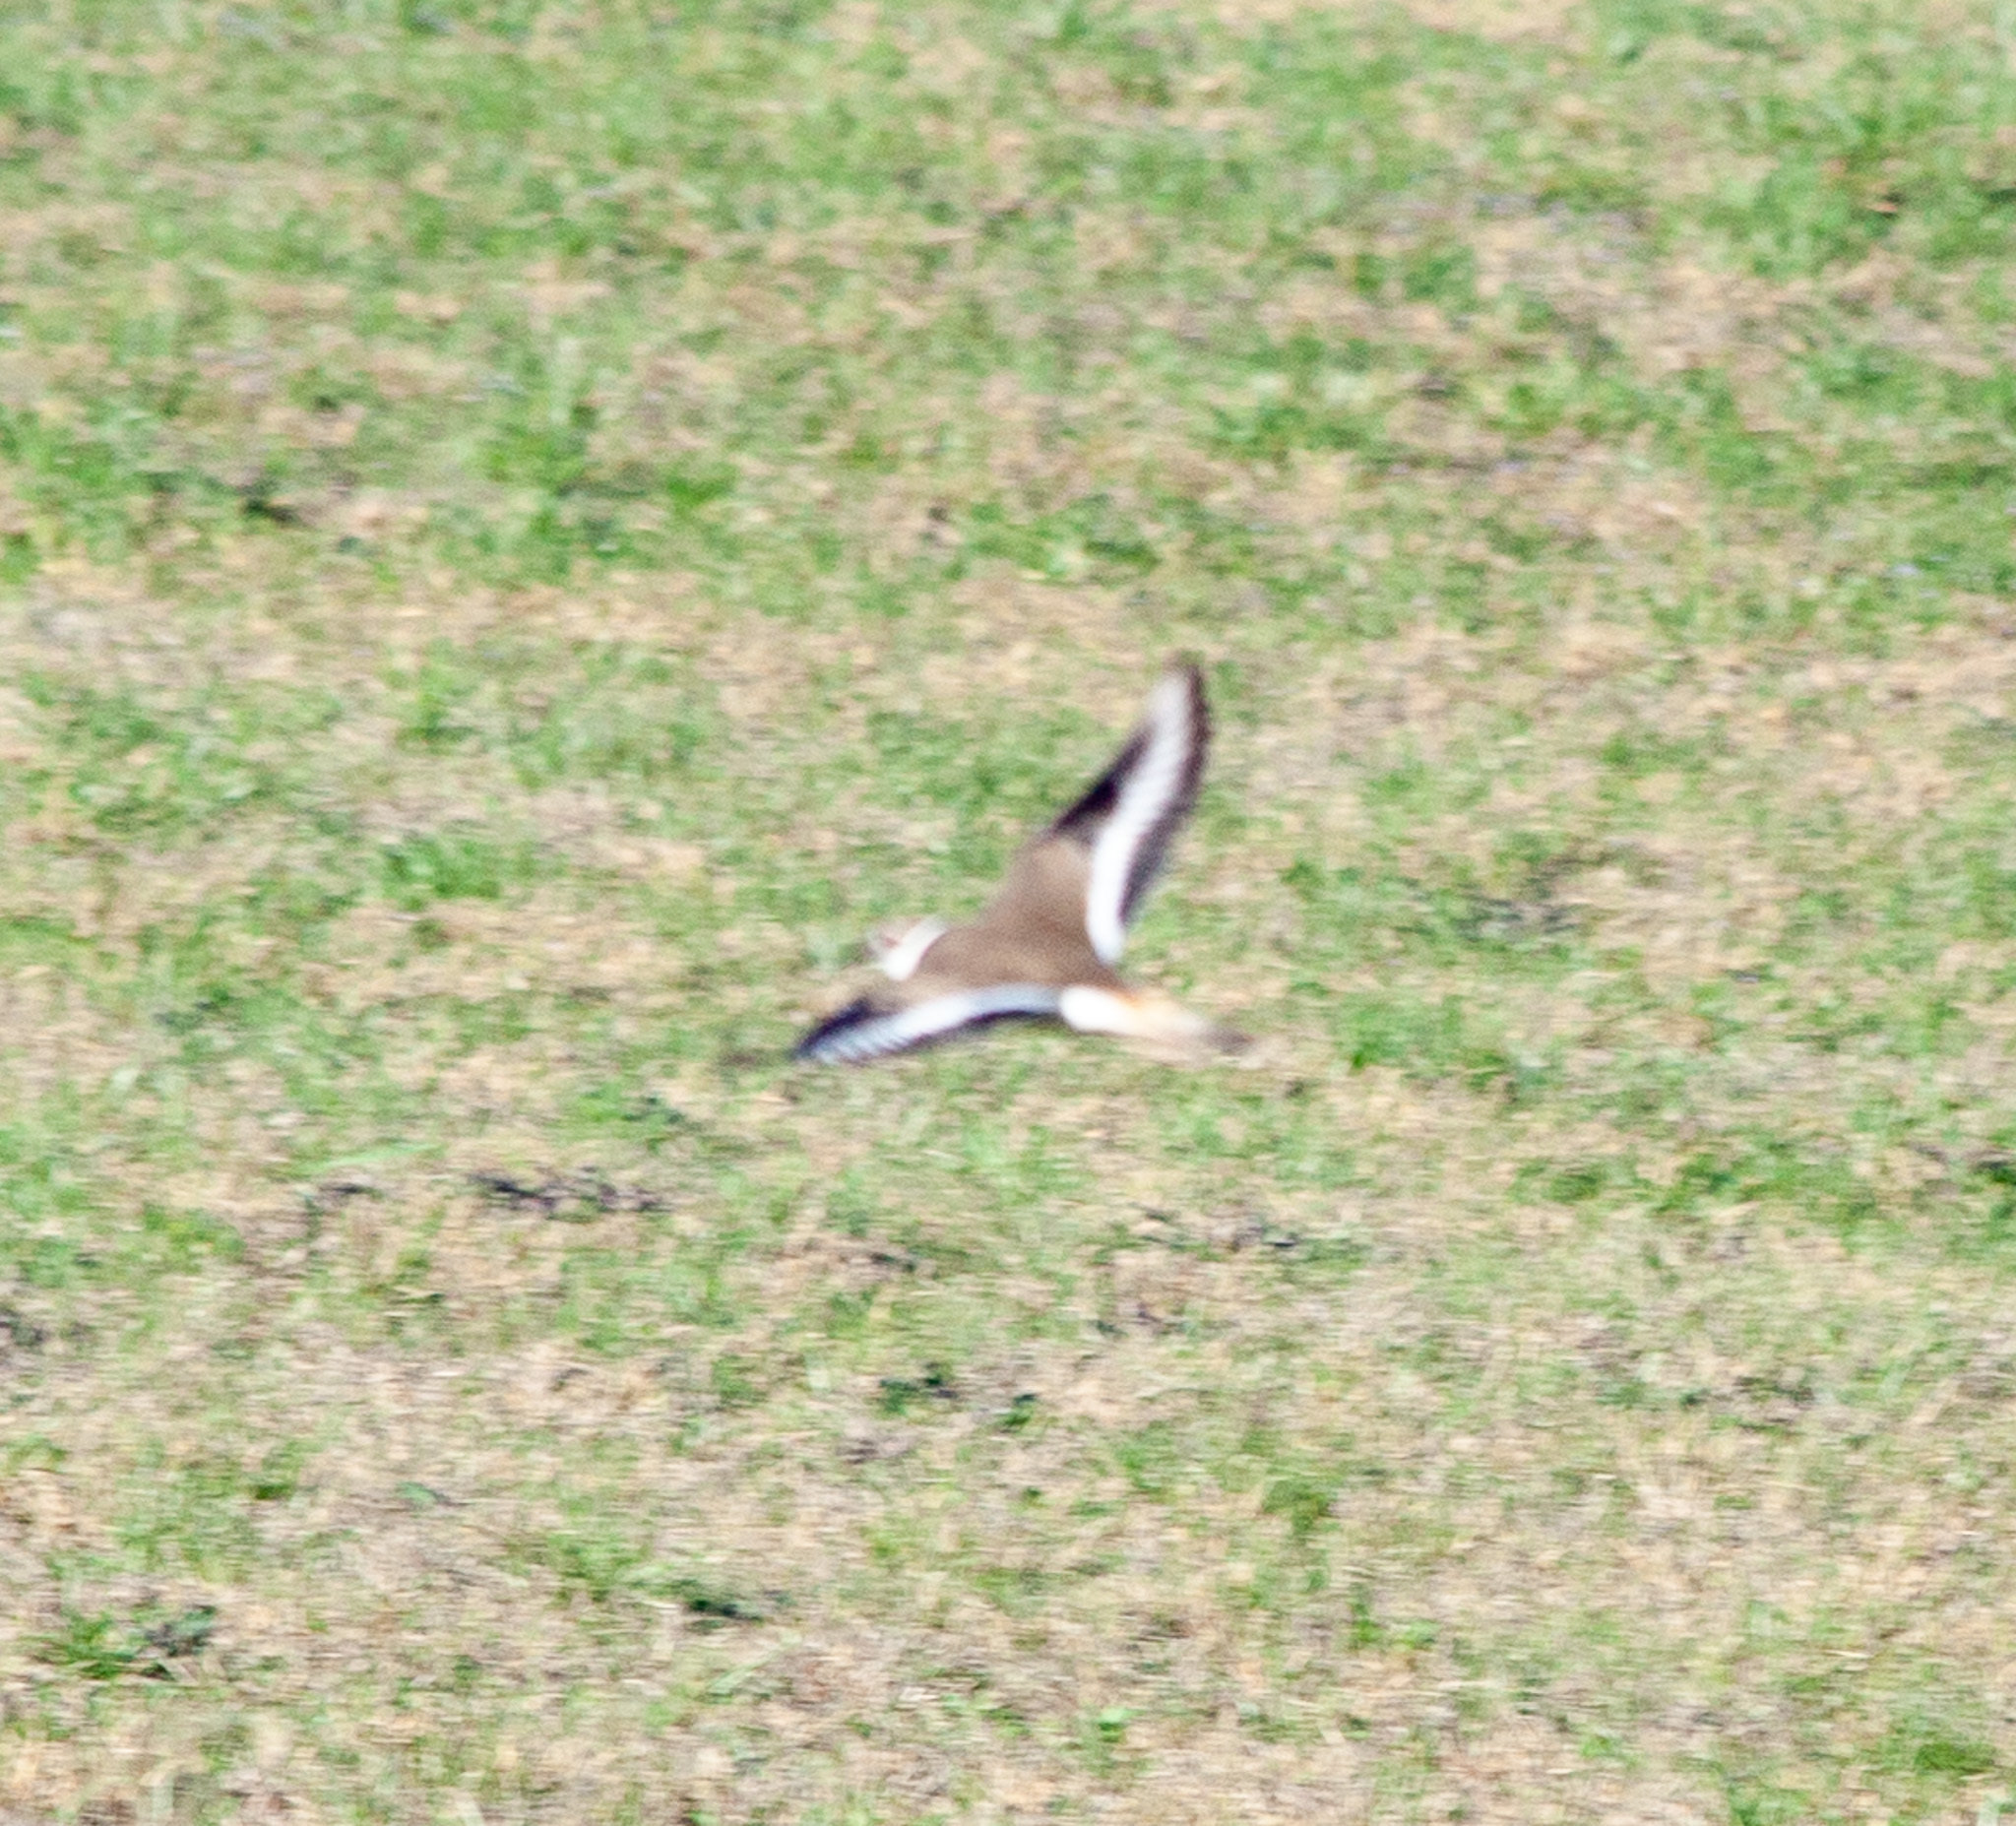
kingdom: Animalia
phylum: Chordata
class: Aves
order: Charadriiformes
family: Charadriidae
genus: Charadrius
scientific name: Charadrius vociferus
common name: Killdeer
